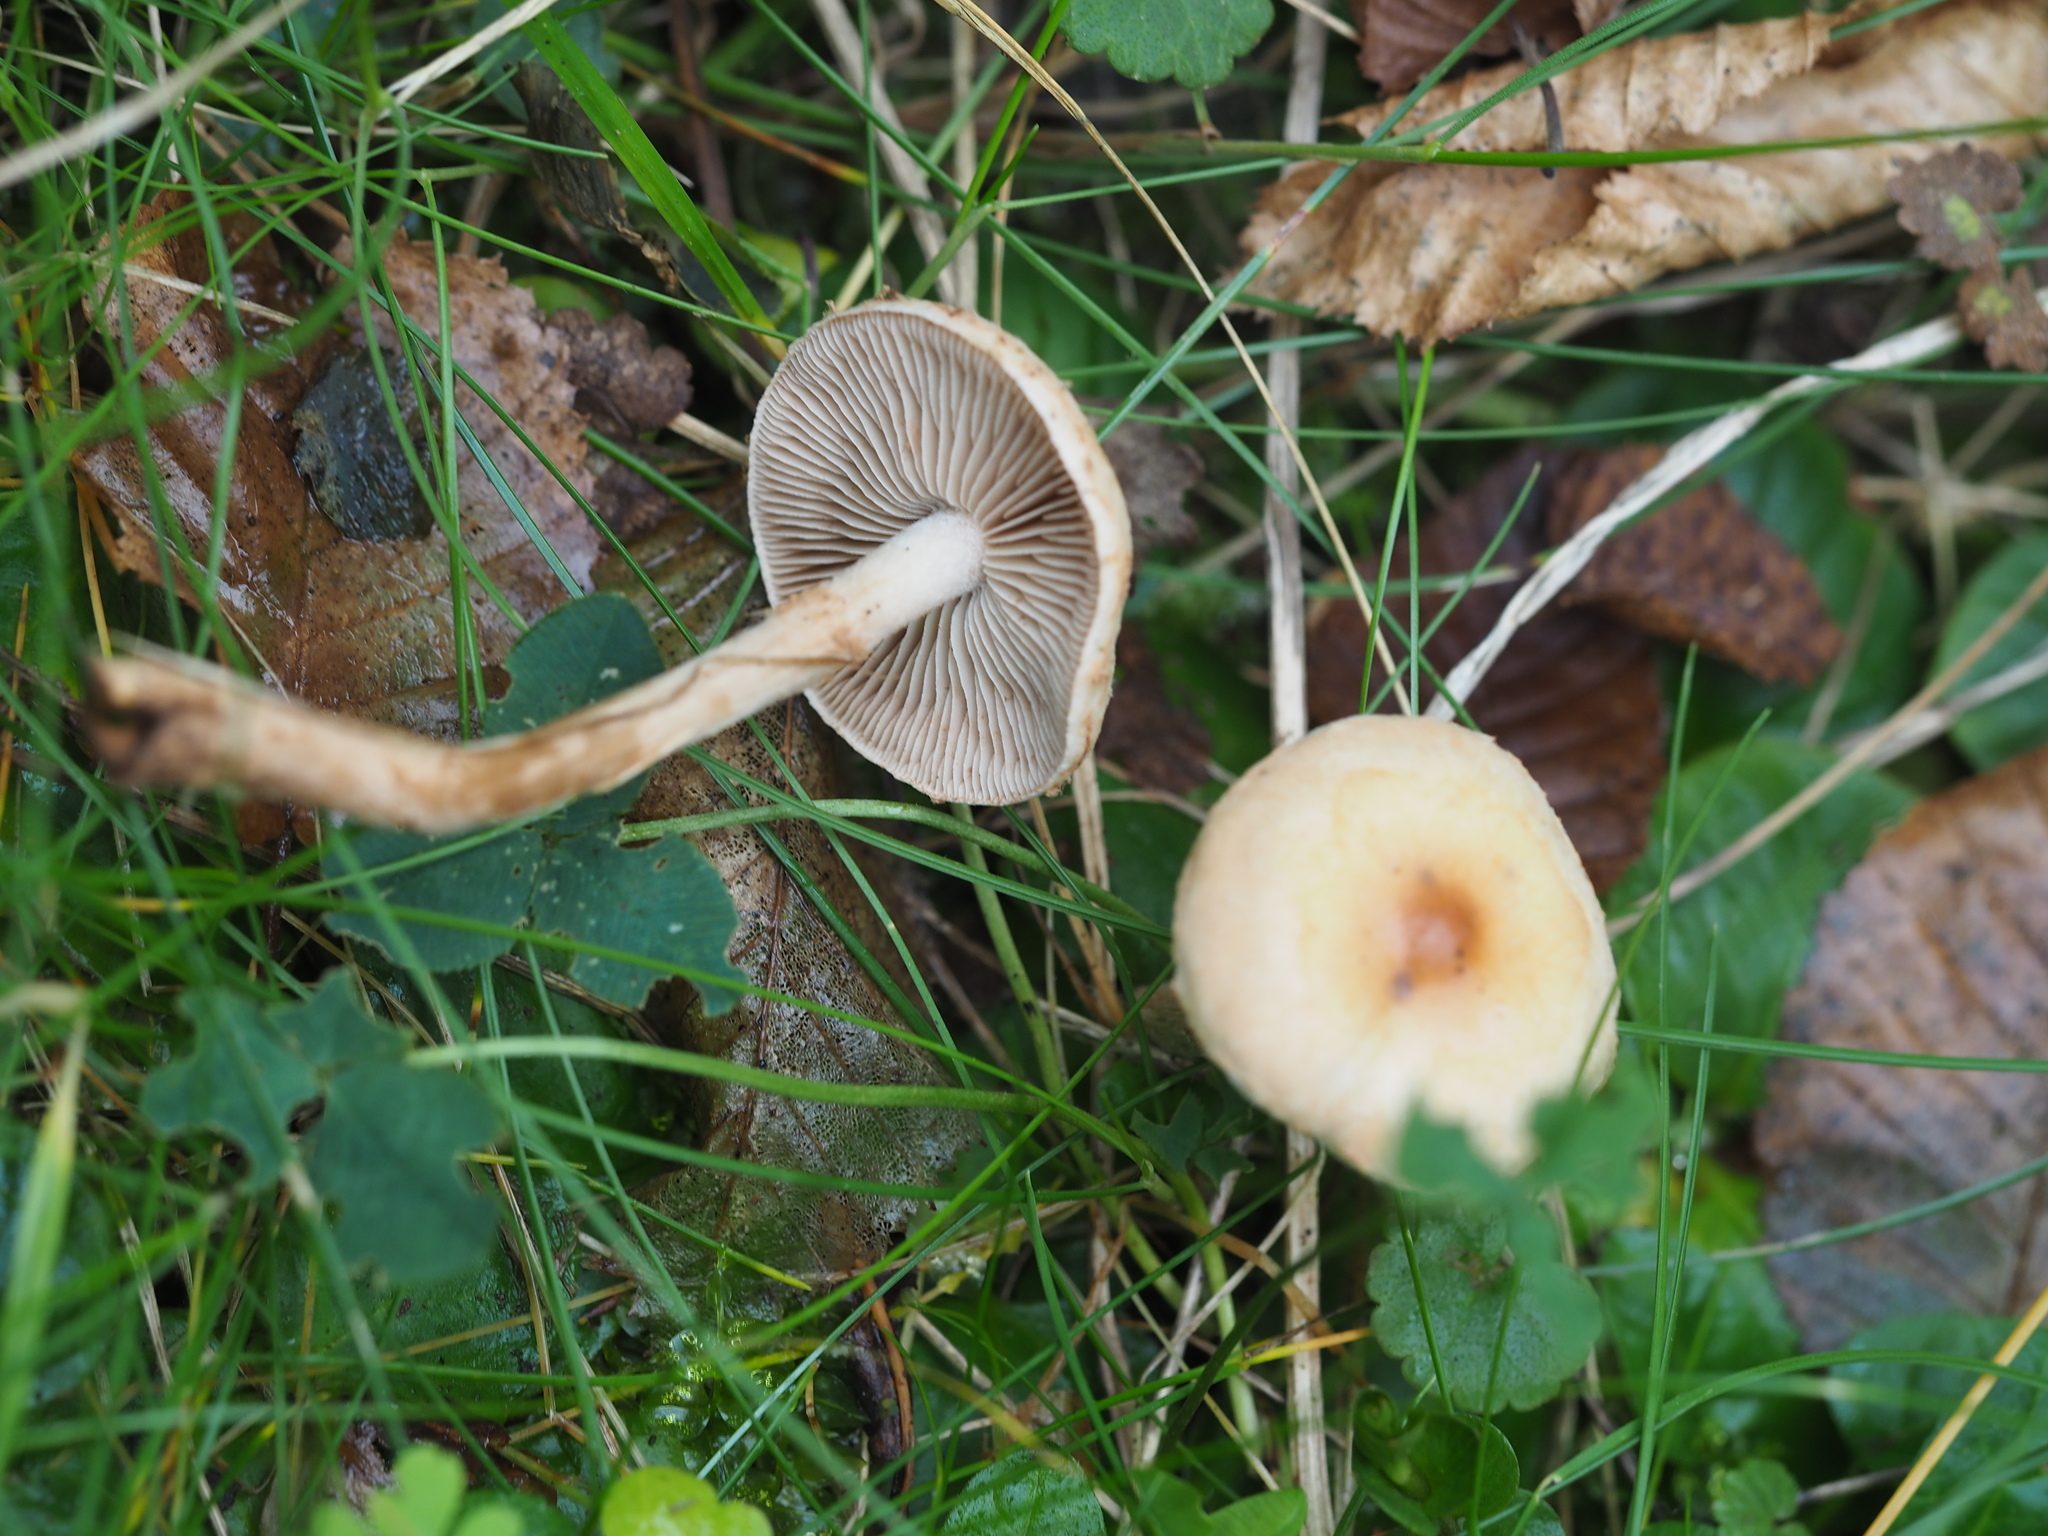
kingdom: Fungi
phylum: Basidiomycota
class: Agaricomycetes
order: Agaricales
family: Hymenogastraceae
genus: Hebeloma
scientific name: Hebeloma mesophaeum
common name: Veiled poisonpie
